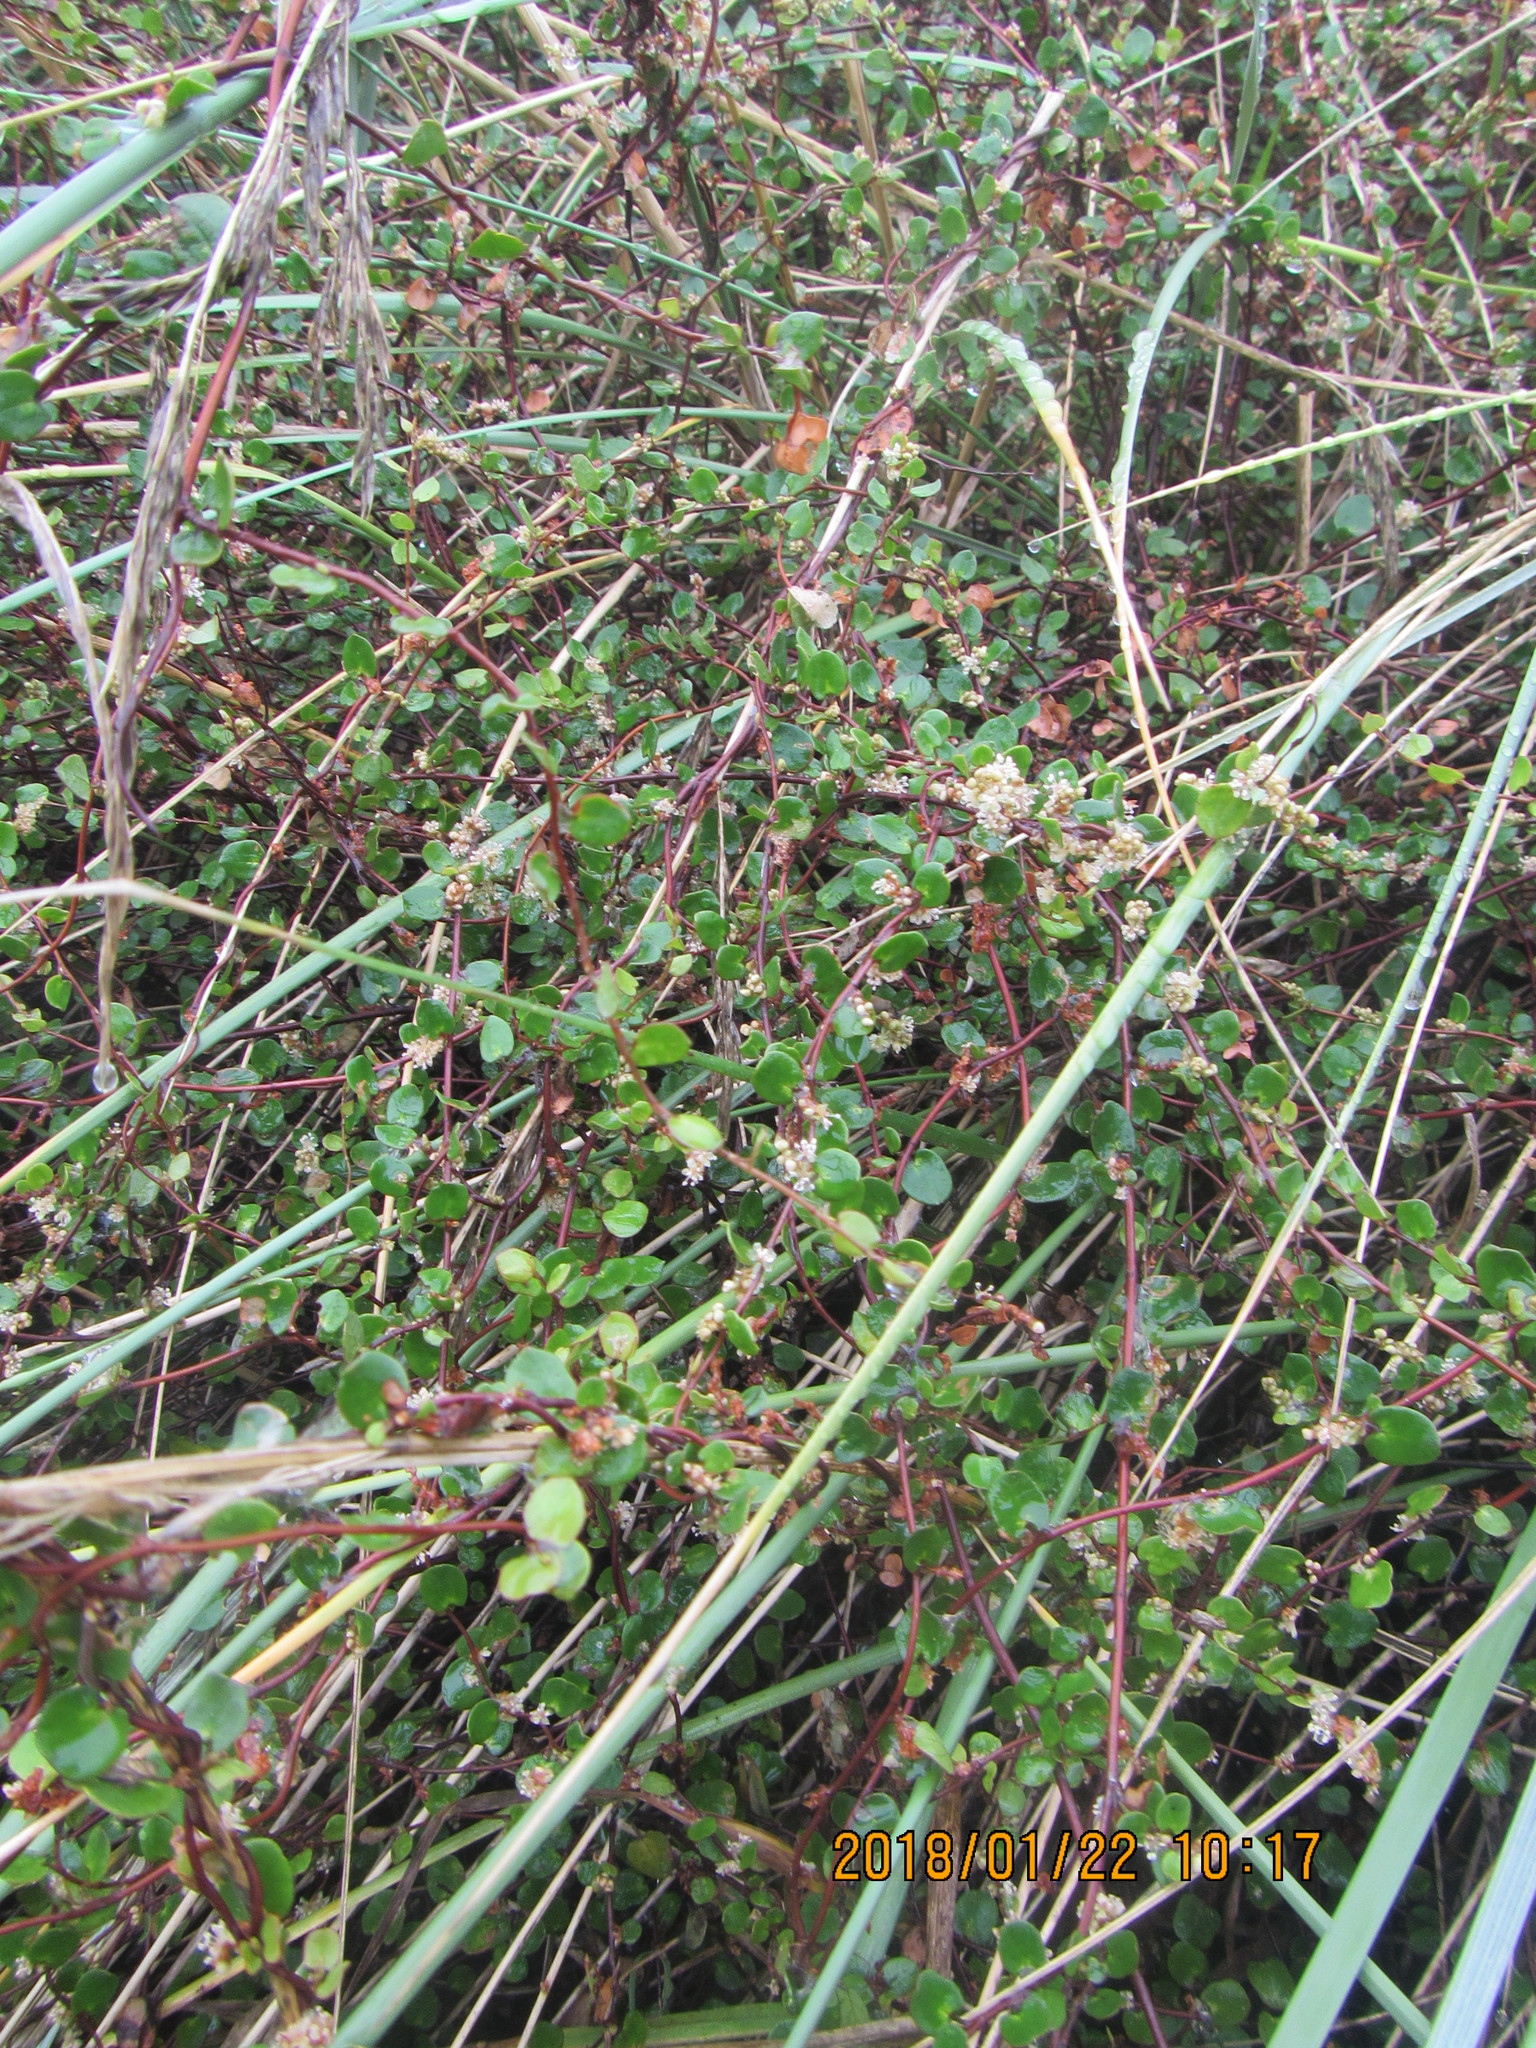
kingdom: Plantae
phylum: Tracheophyta
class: Magnoliopsida
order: Caryophyllales
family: Polygonaceae
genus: Muehlenbeckia
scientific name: Muehlenbeckia complexa
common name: Wireplant
